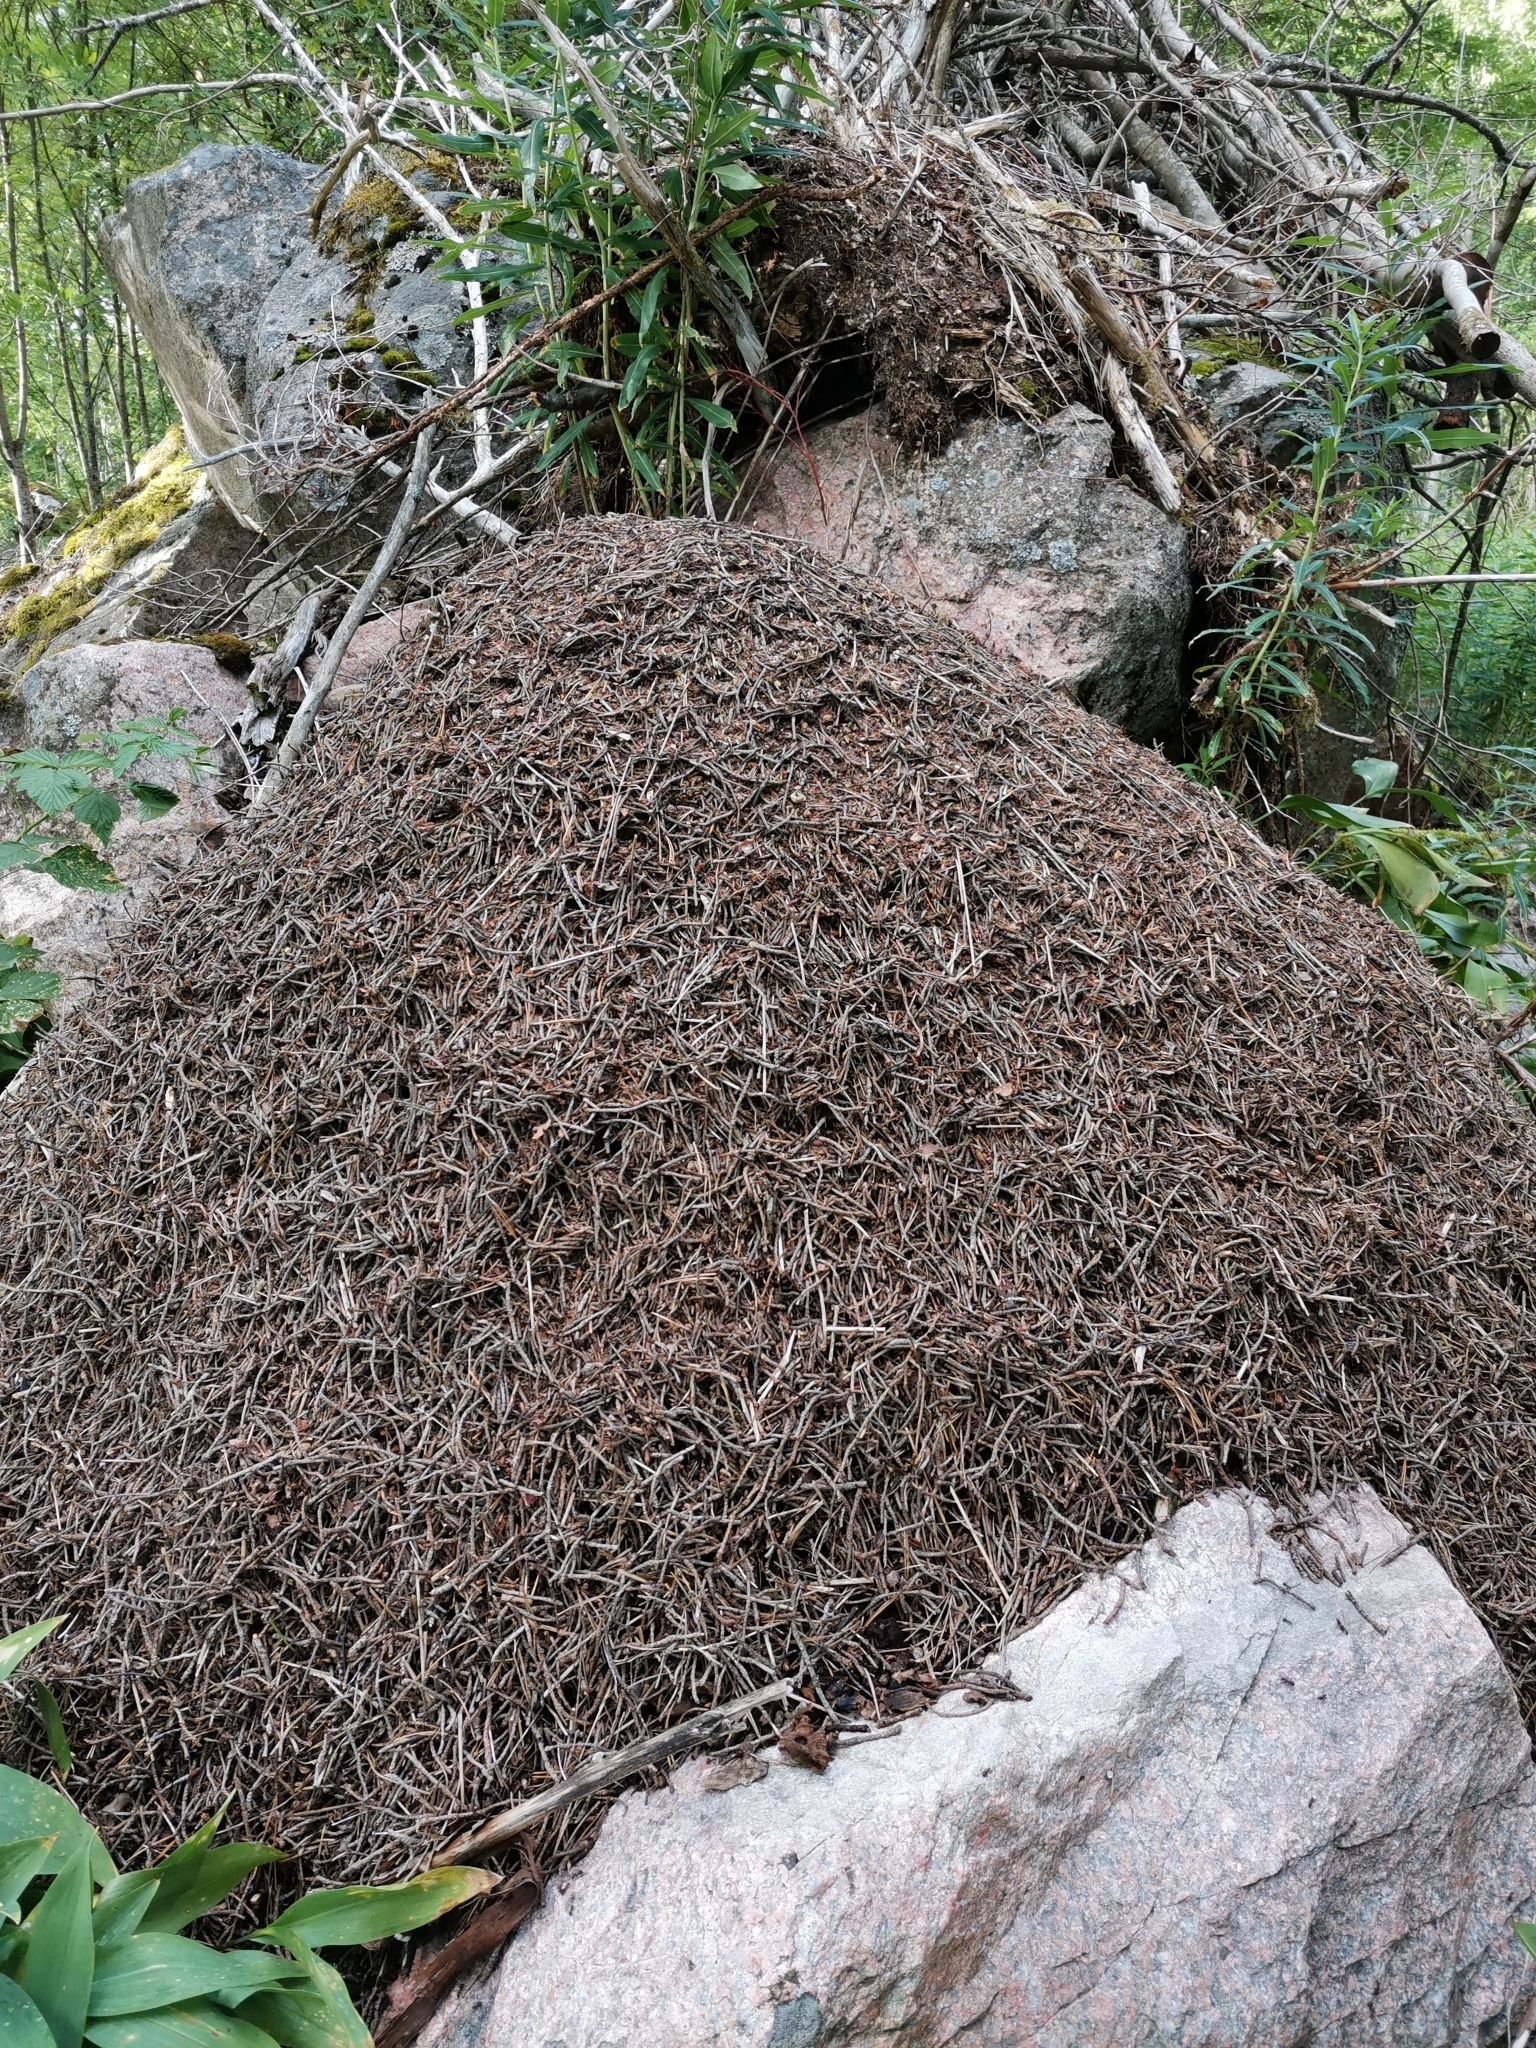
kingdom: Animalia
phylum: Arthropoda
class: Insecta
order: Hymenoptera
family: Formicidae
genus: Formica
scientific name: Formica rufa
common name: Red wood ant
